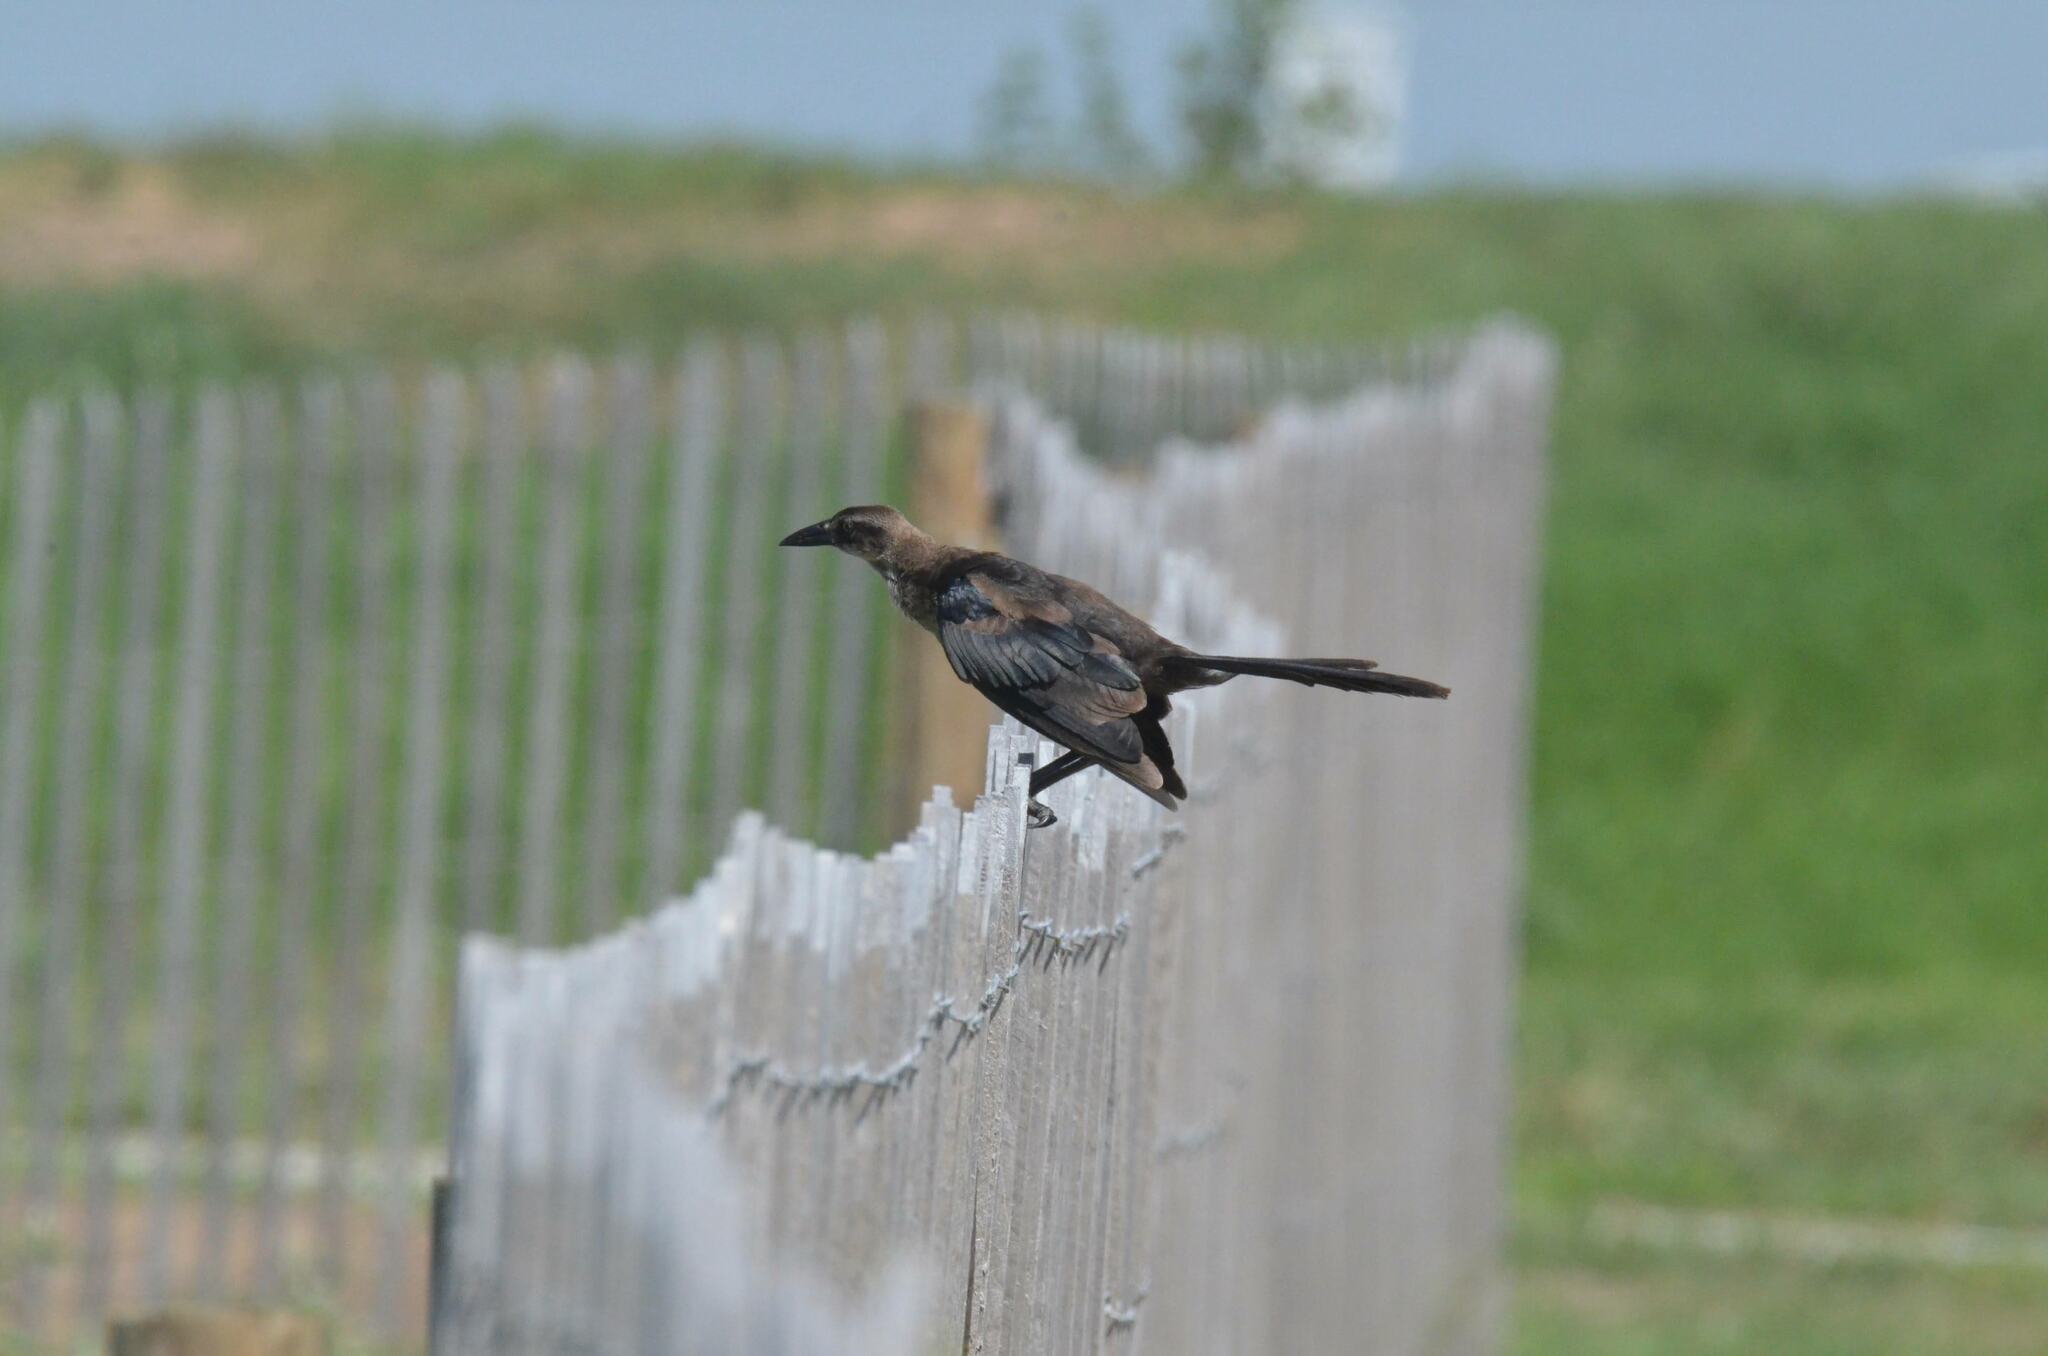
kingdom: Animalia
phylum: Chordata
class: Aves
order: Passeriformes
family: Icteridae
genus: Quiscalus
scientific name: Quiscalus major
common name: Boat-tailed grackle
